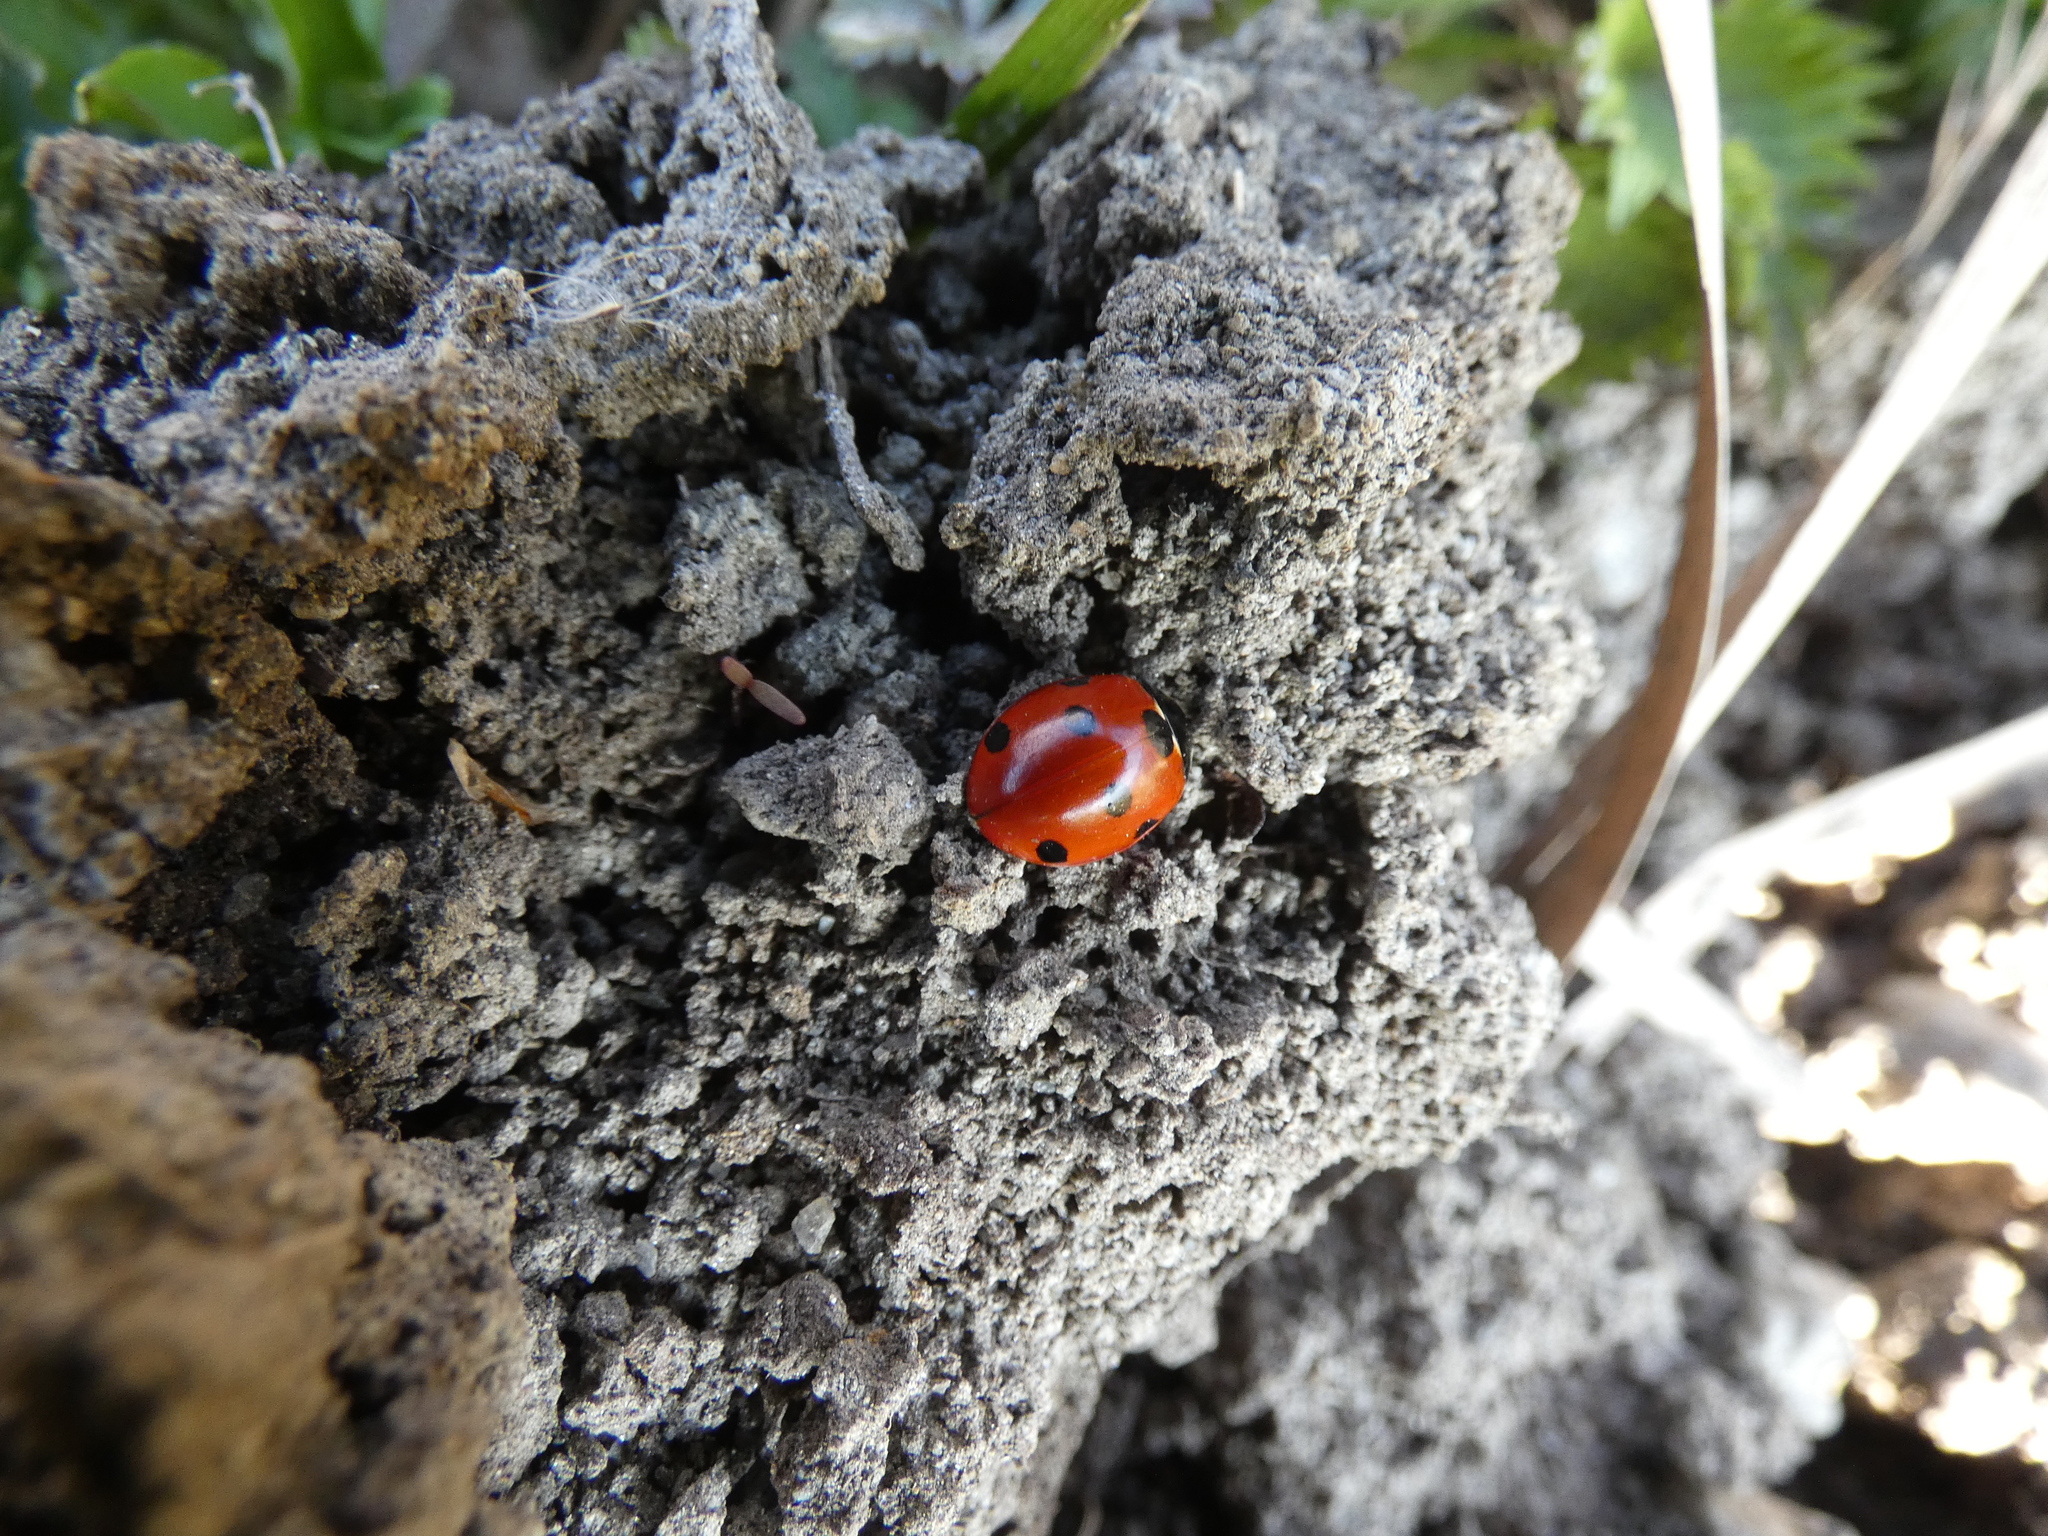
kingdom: Animalia
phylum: Arthropoda
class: Insecta
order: Coleoptera
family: Coccinellidae
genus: Coccinella
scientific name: Coccinella septempunctata
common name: Sevenspotted lady beetle
